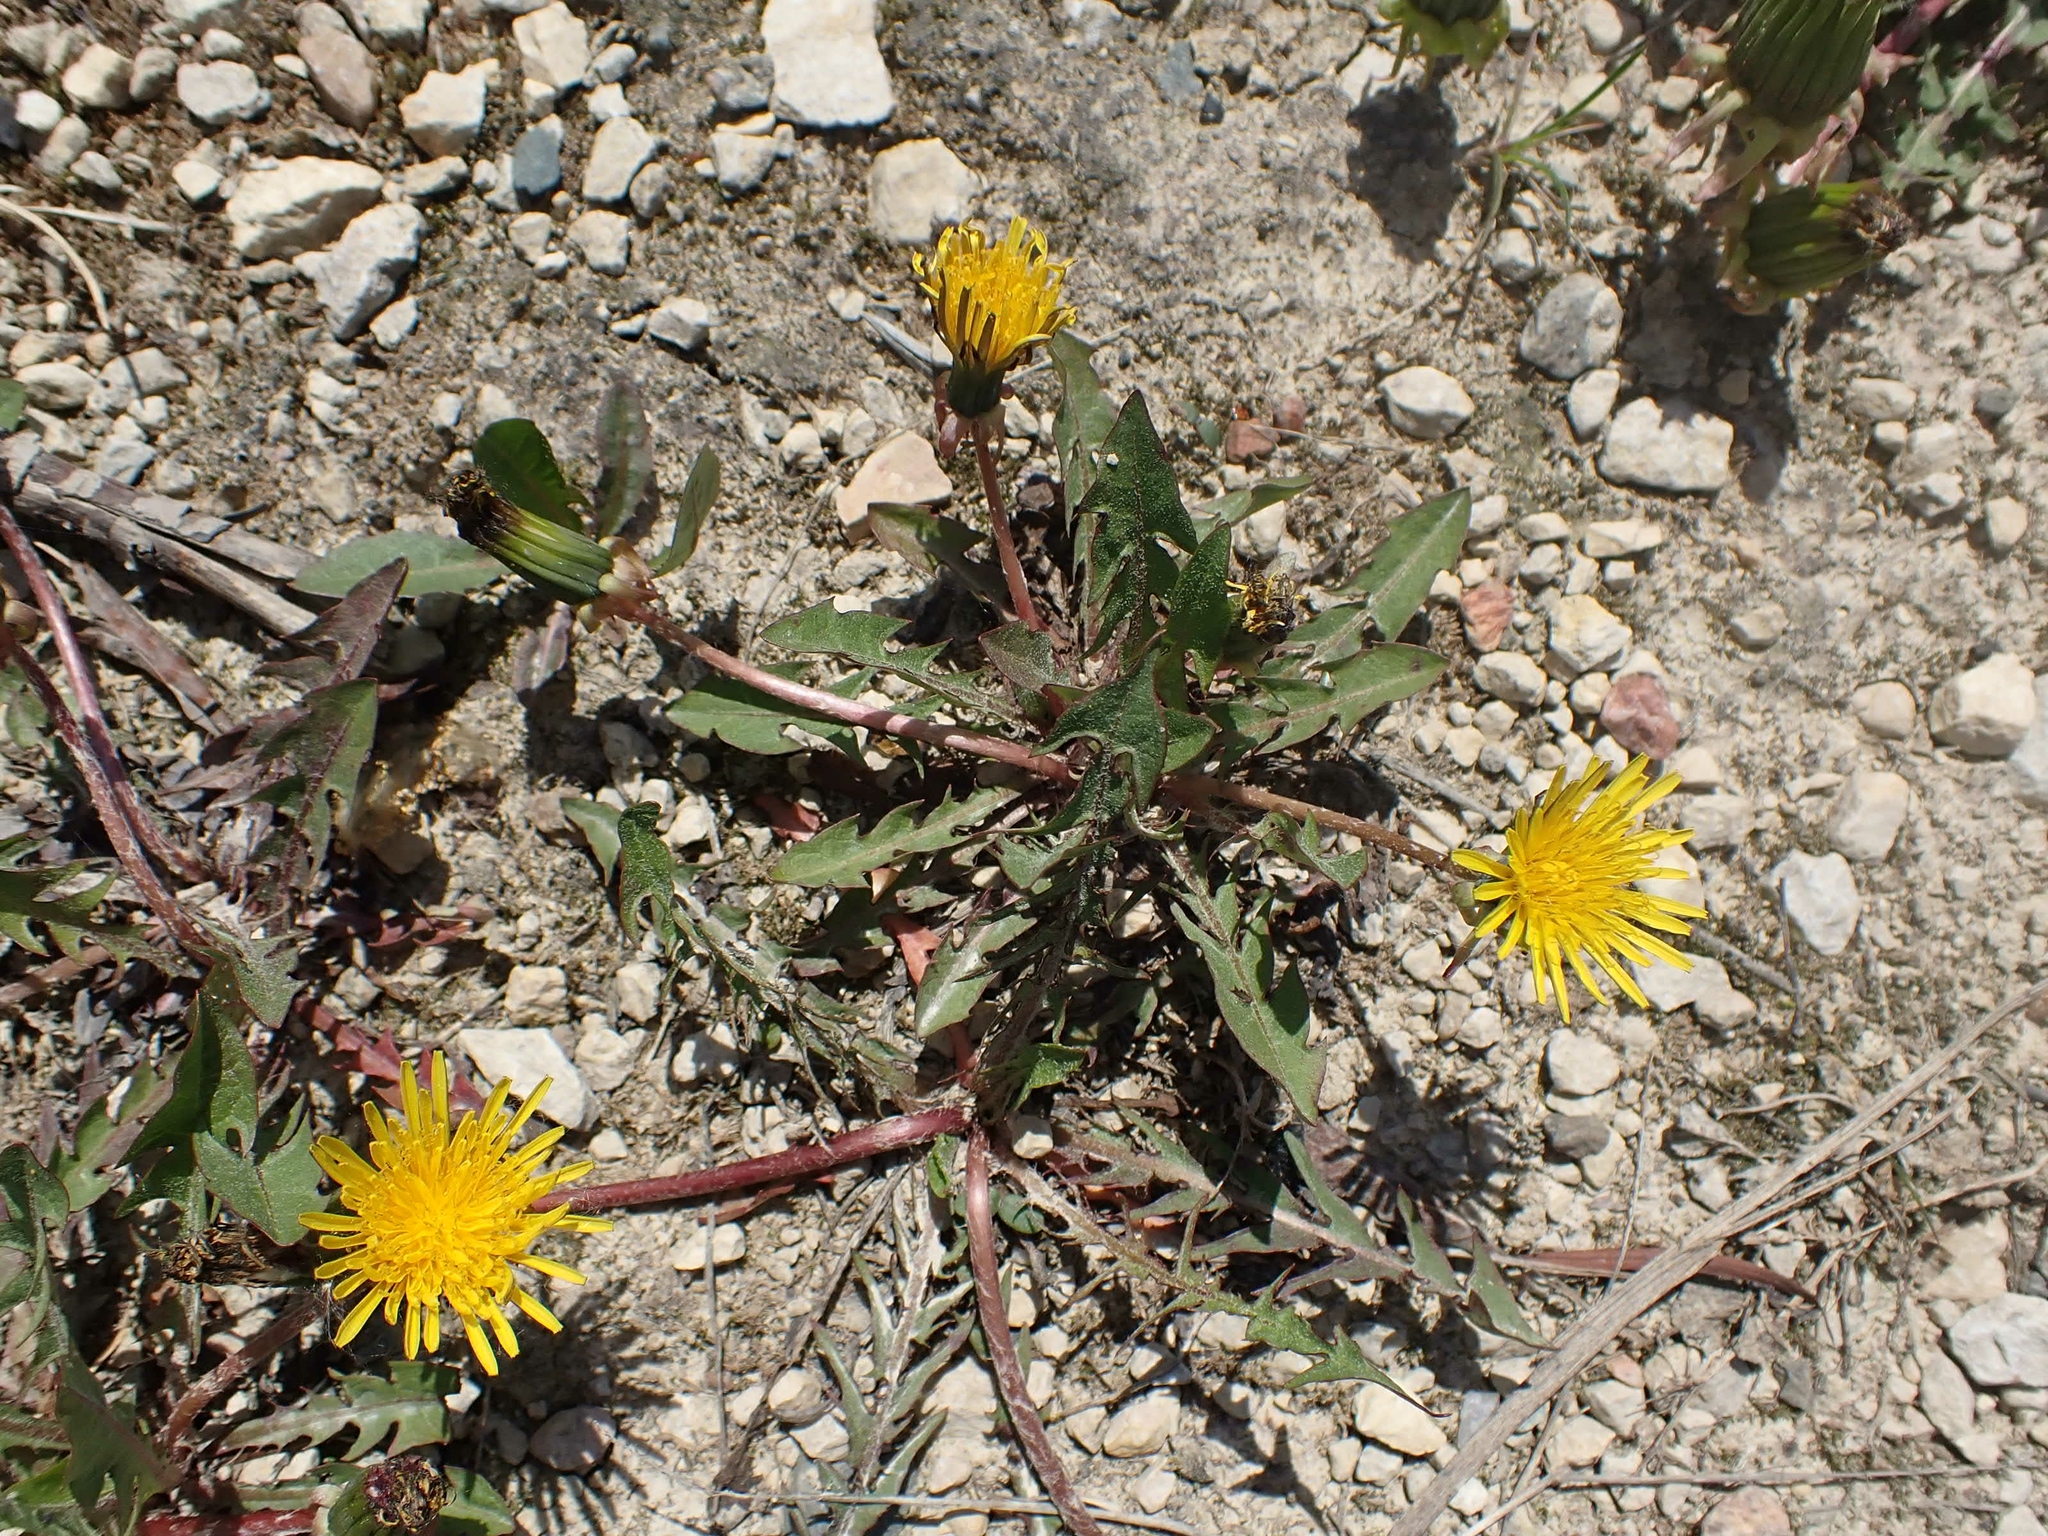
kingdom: Plantae
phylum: Tracheophyta
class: Magnoliopsida
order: Asterales
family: Asteraceae
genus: Taraxacum
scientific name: Taraxacum officinale
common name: Common dandelion
